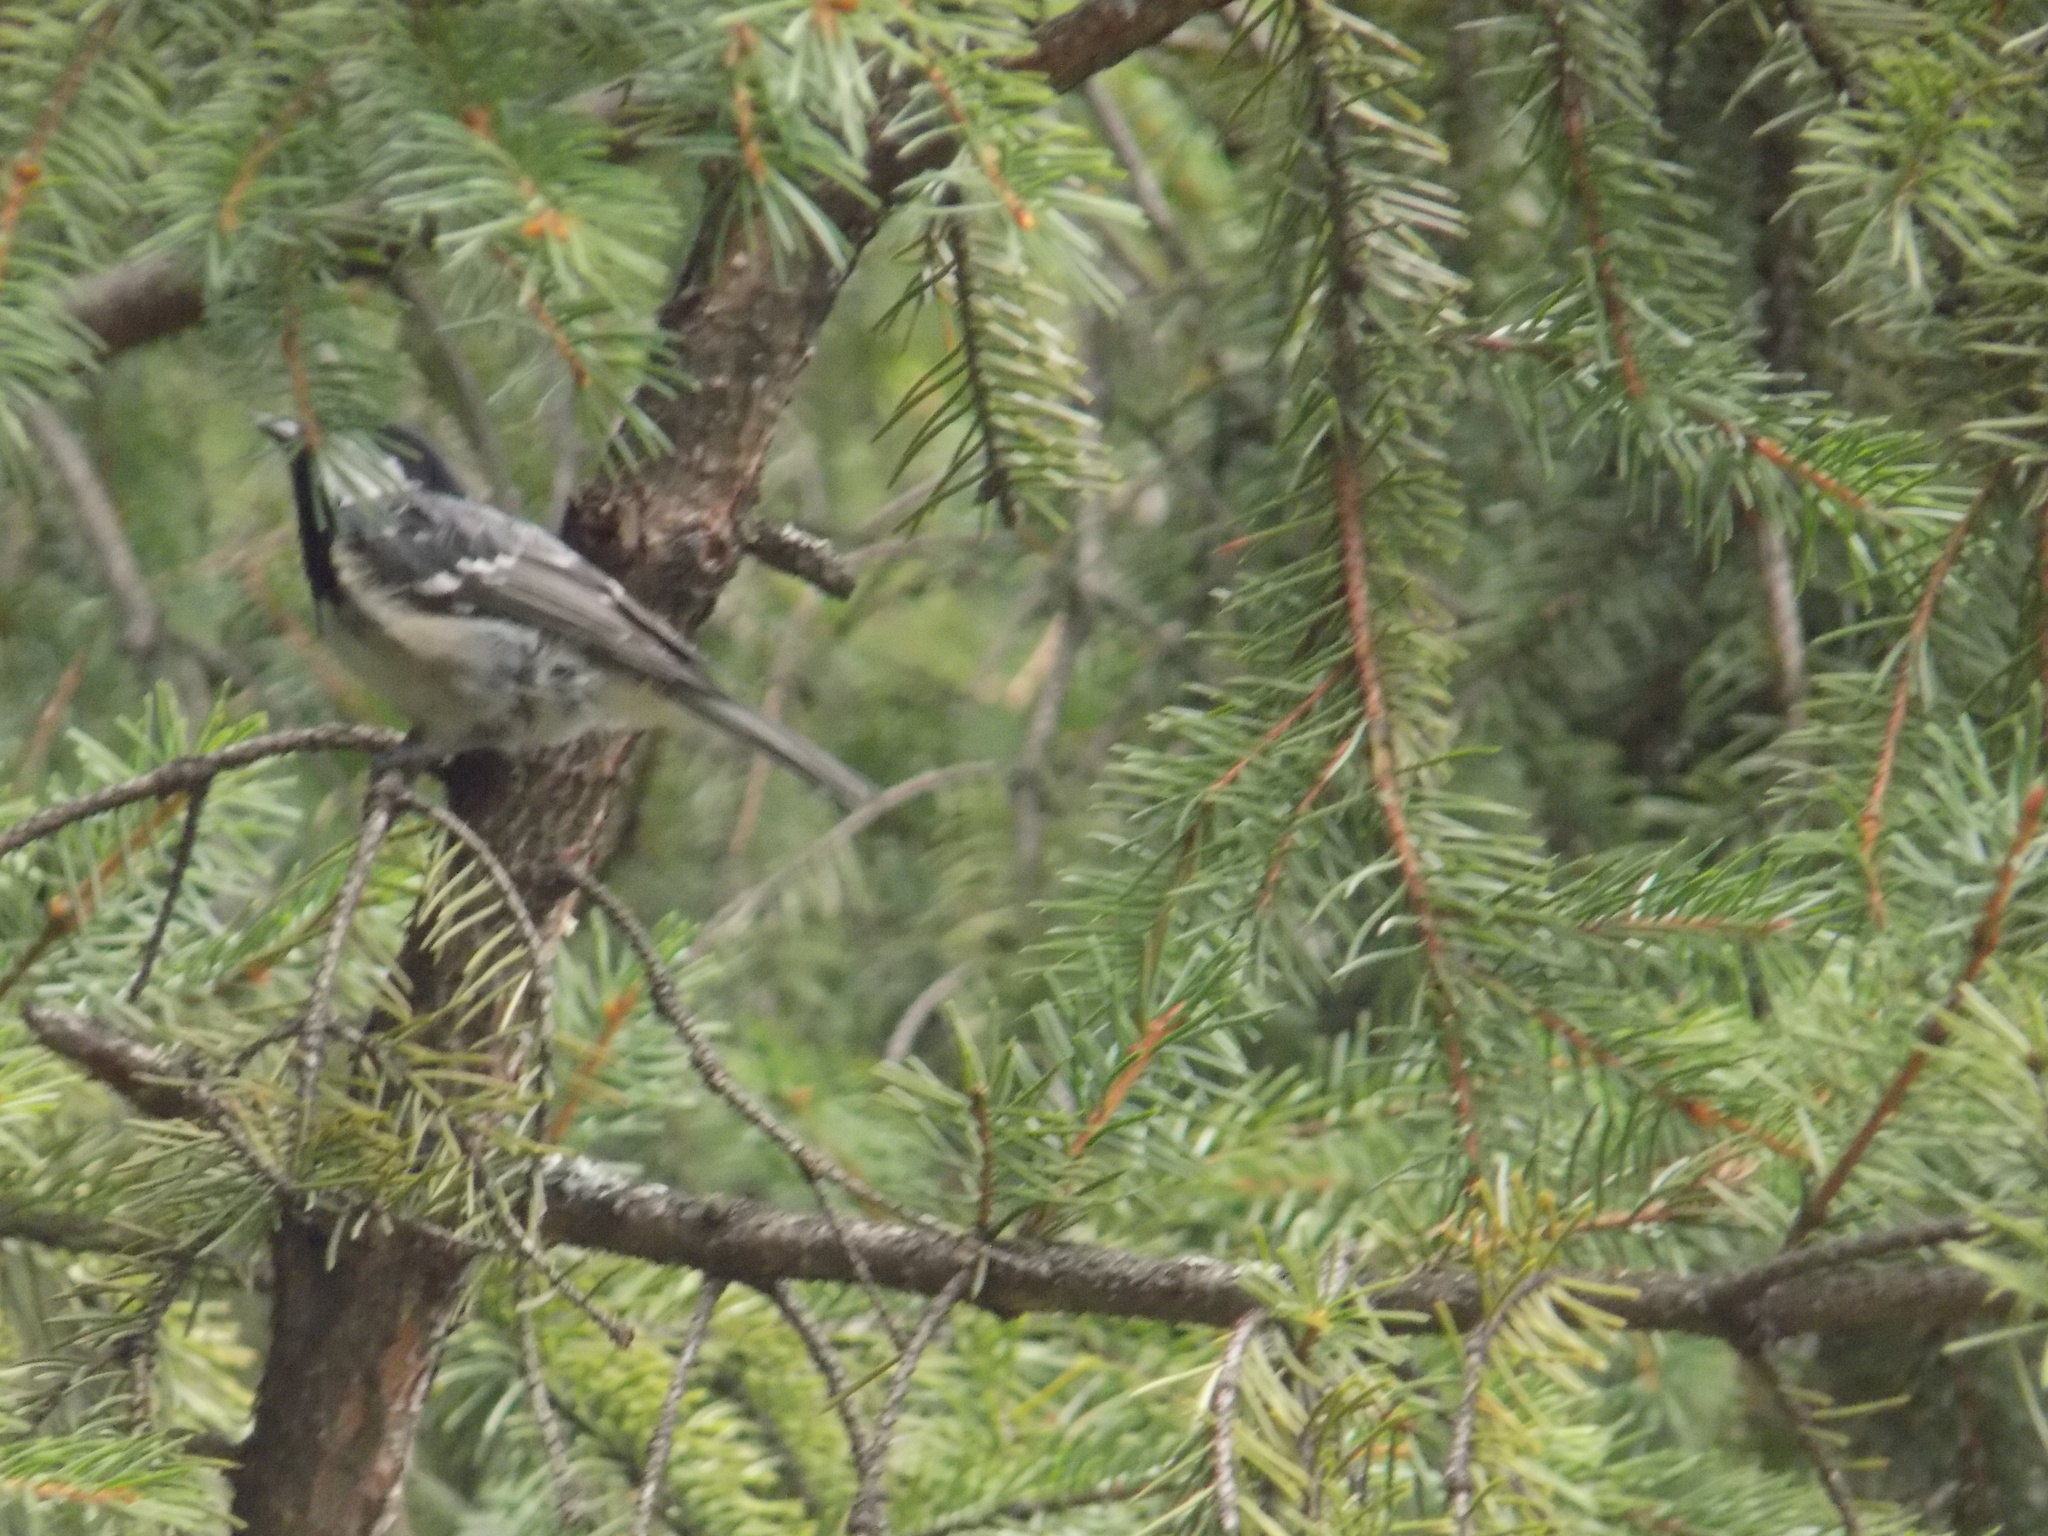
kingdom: Animalia
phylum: Chordata
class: Aves
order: Passeriformes
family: Paridae
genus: Periparus
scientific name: Periparus ater
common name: Coal tit
